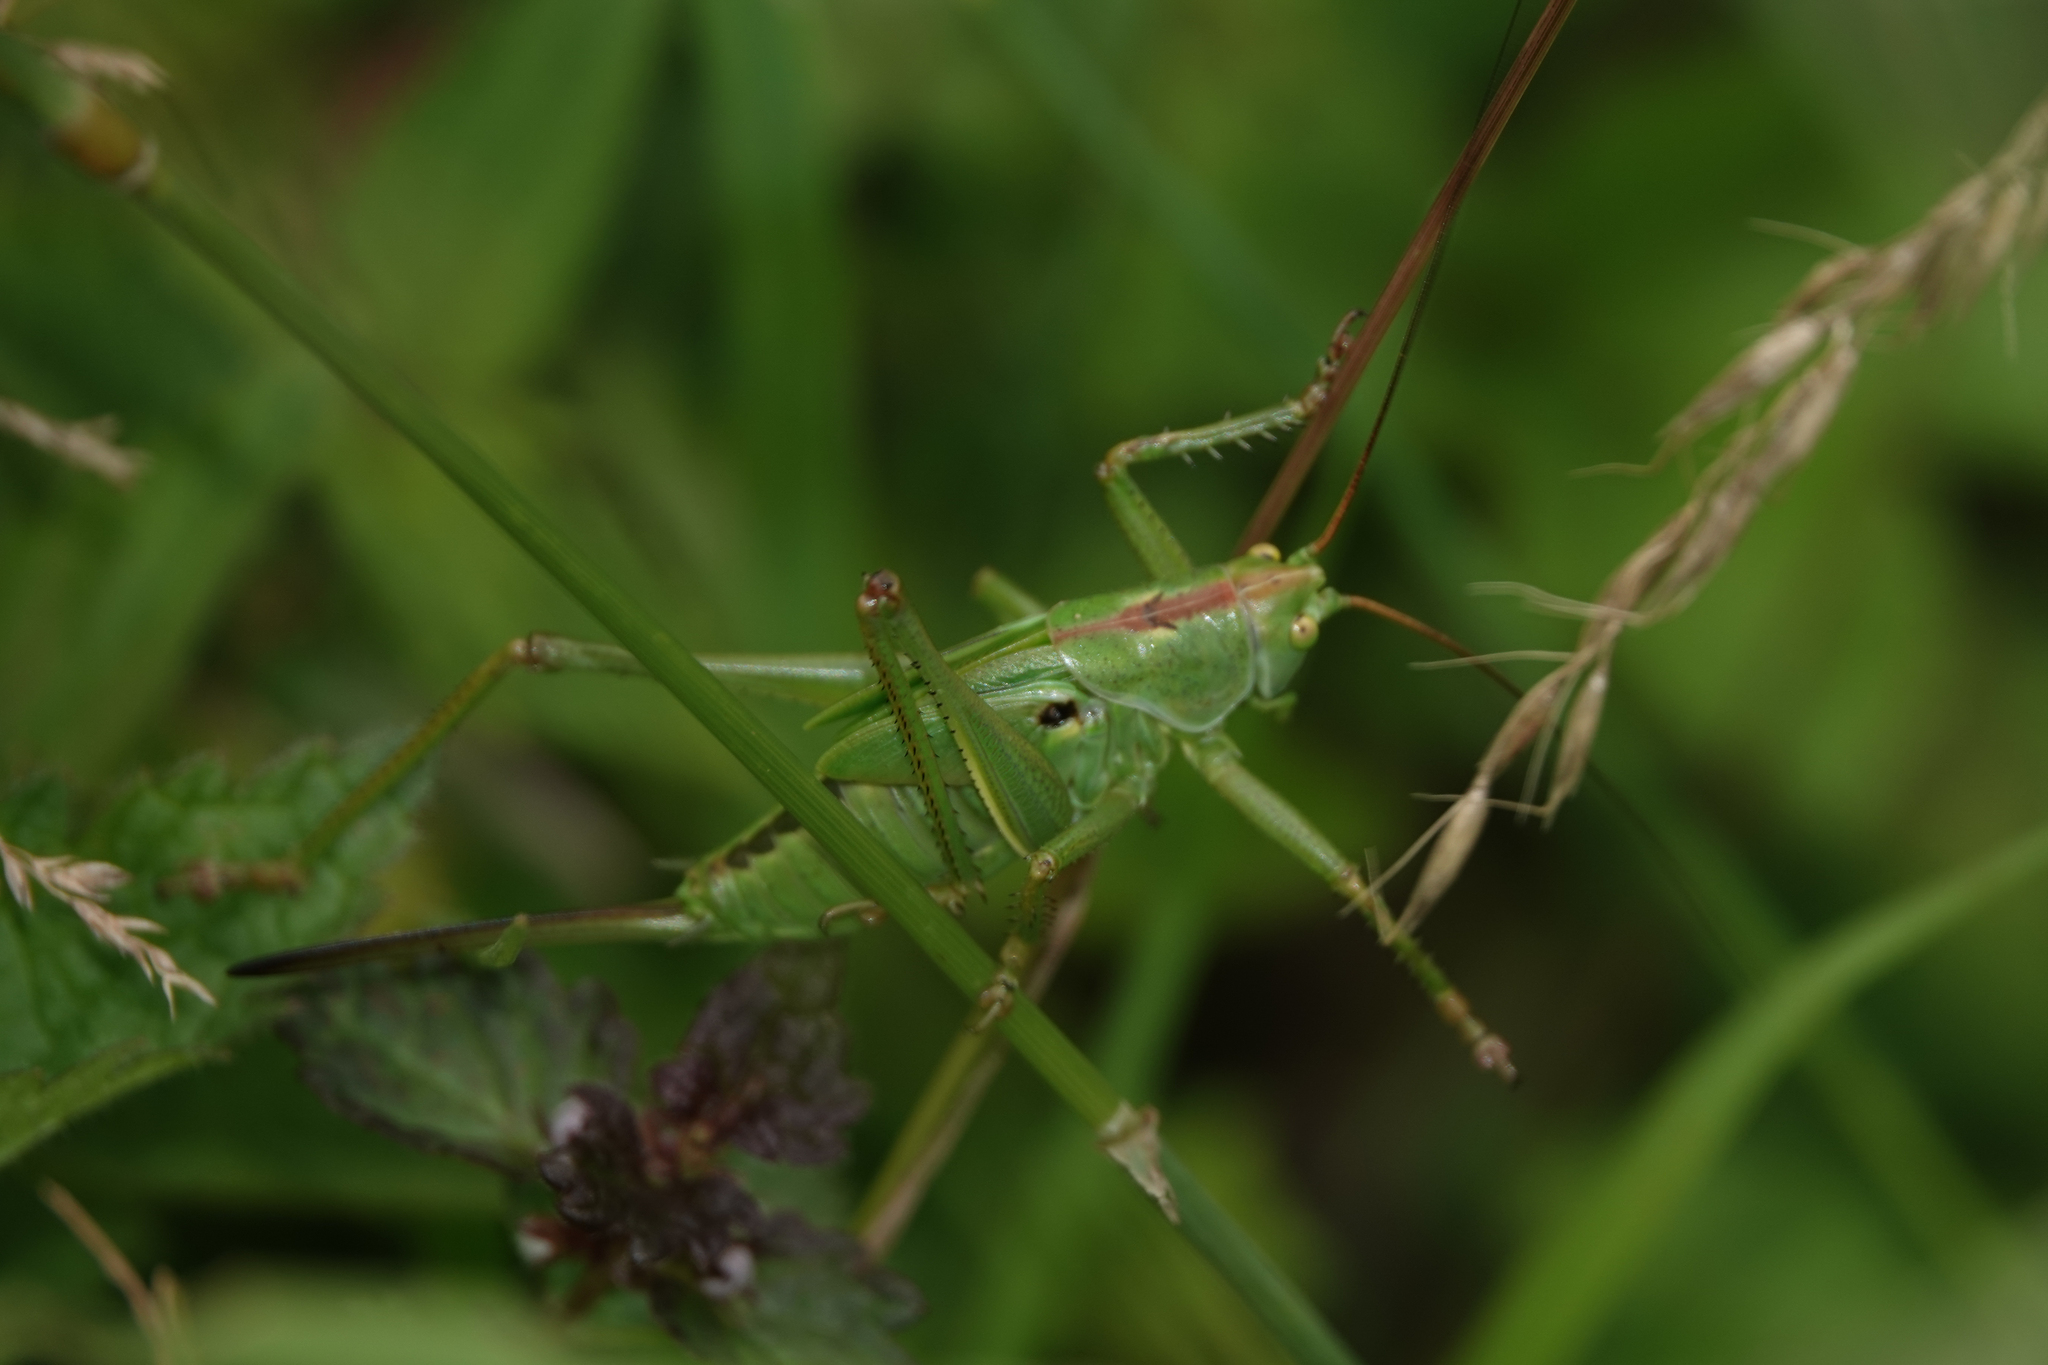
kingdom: Animalia
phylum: Arthropoda
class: Insecta
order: Orthoptera
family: Tettigoniidae
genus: Tettigonia
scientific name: Tettigonia viridissima
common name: Great green bush-cricket
